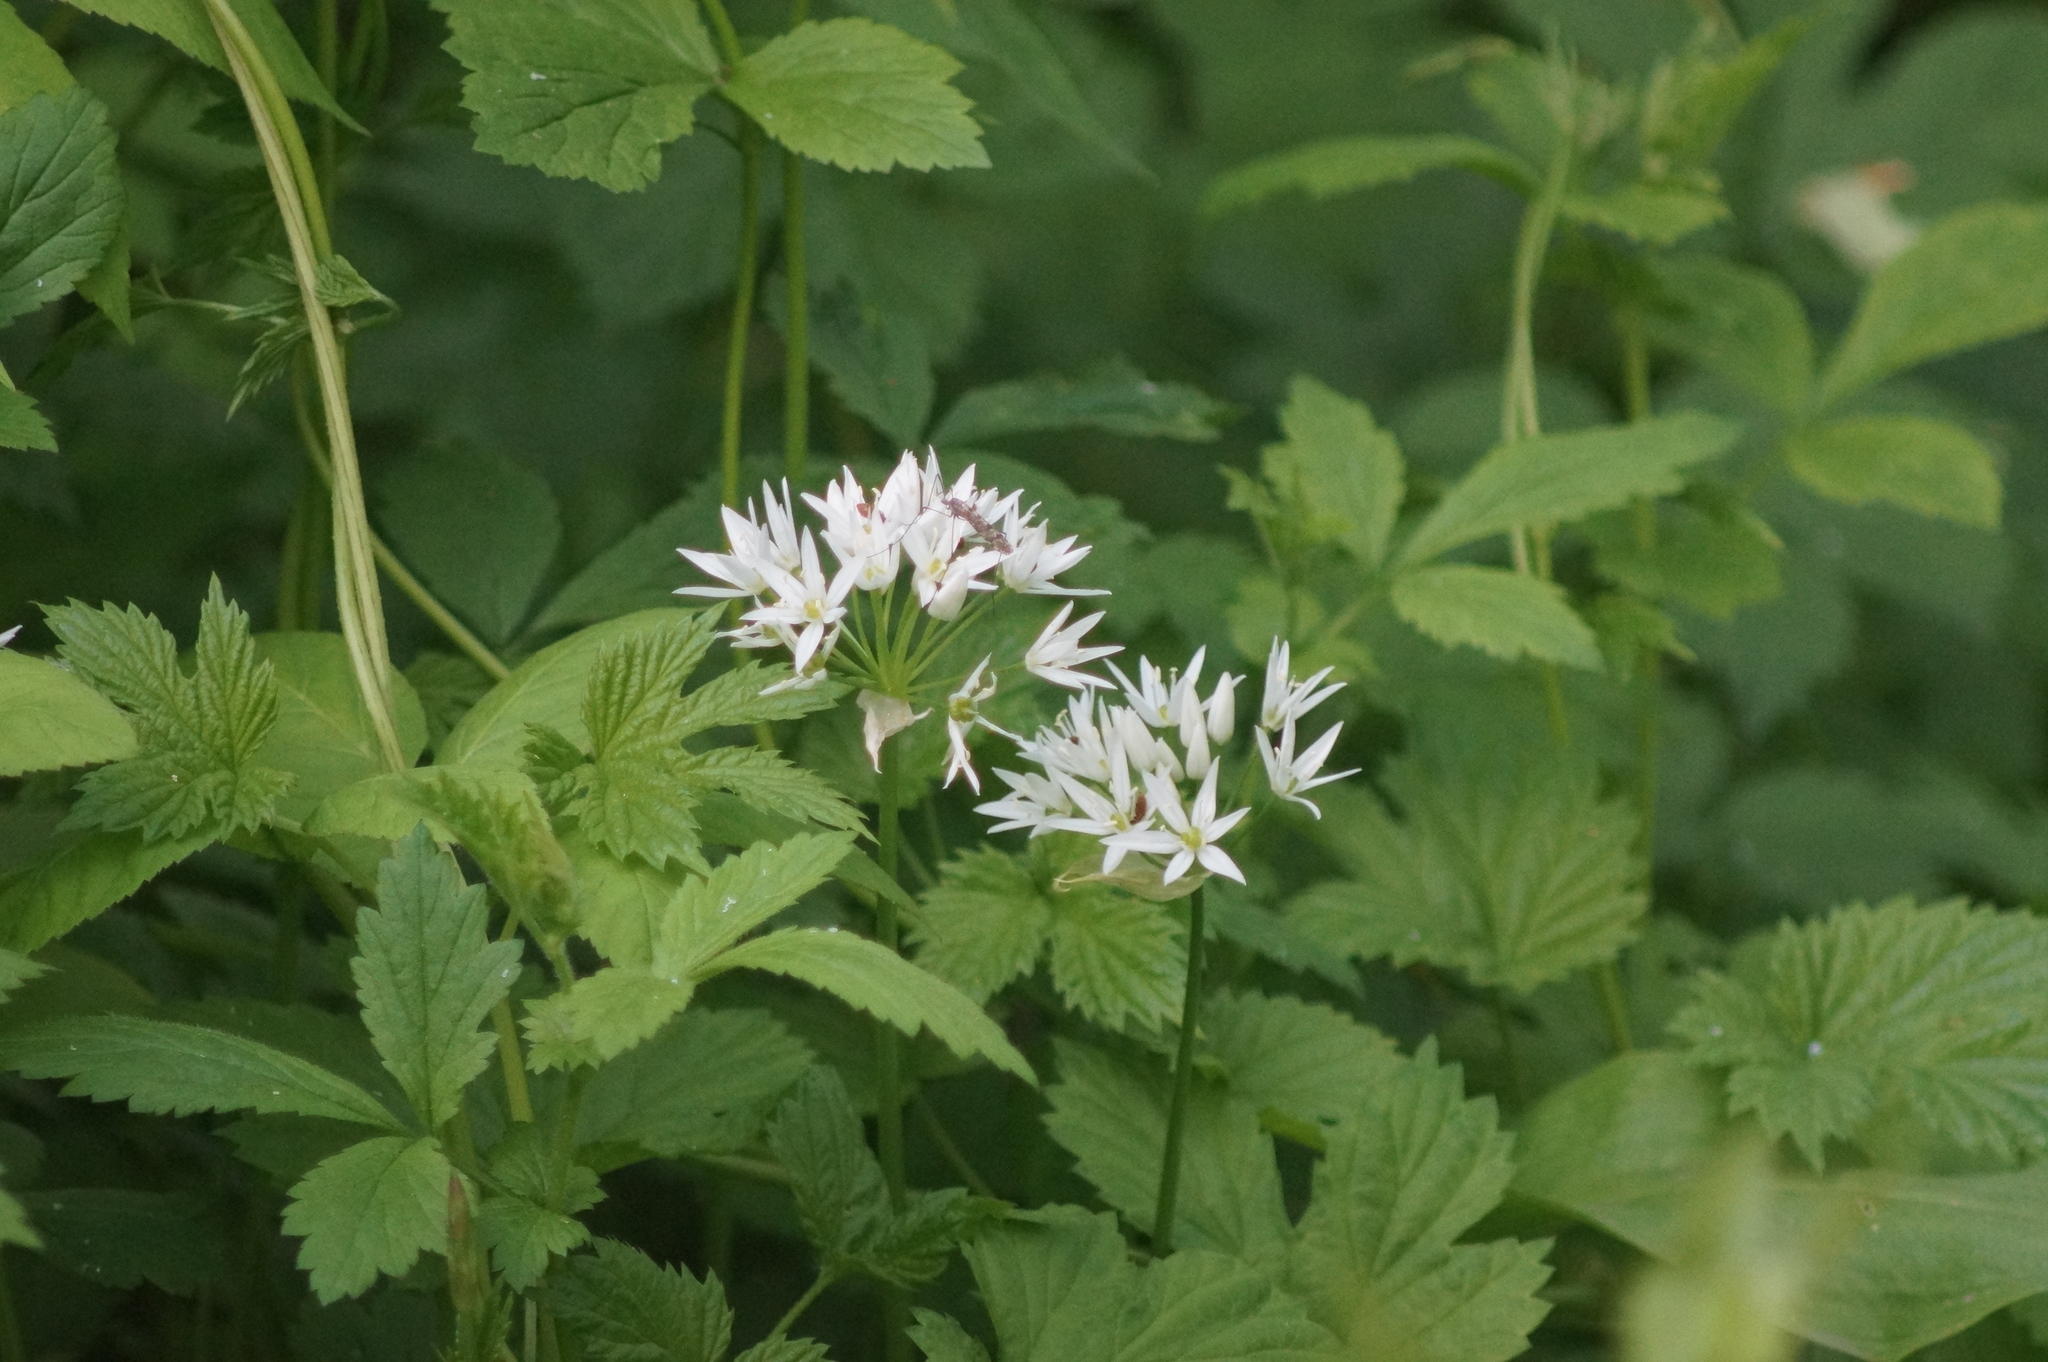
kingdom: Plantae
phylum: Tracheophyta
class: Liliopsida
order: Asparagales
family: Amaryllidaceae
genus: Allium
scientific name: Allium ursinum
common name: Ramsons
